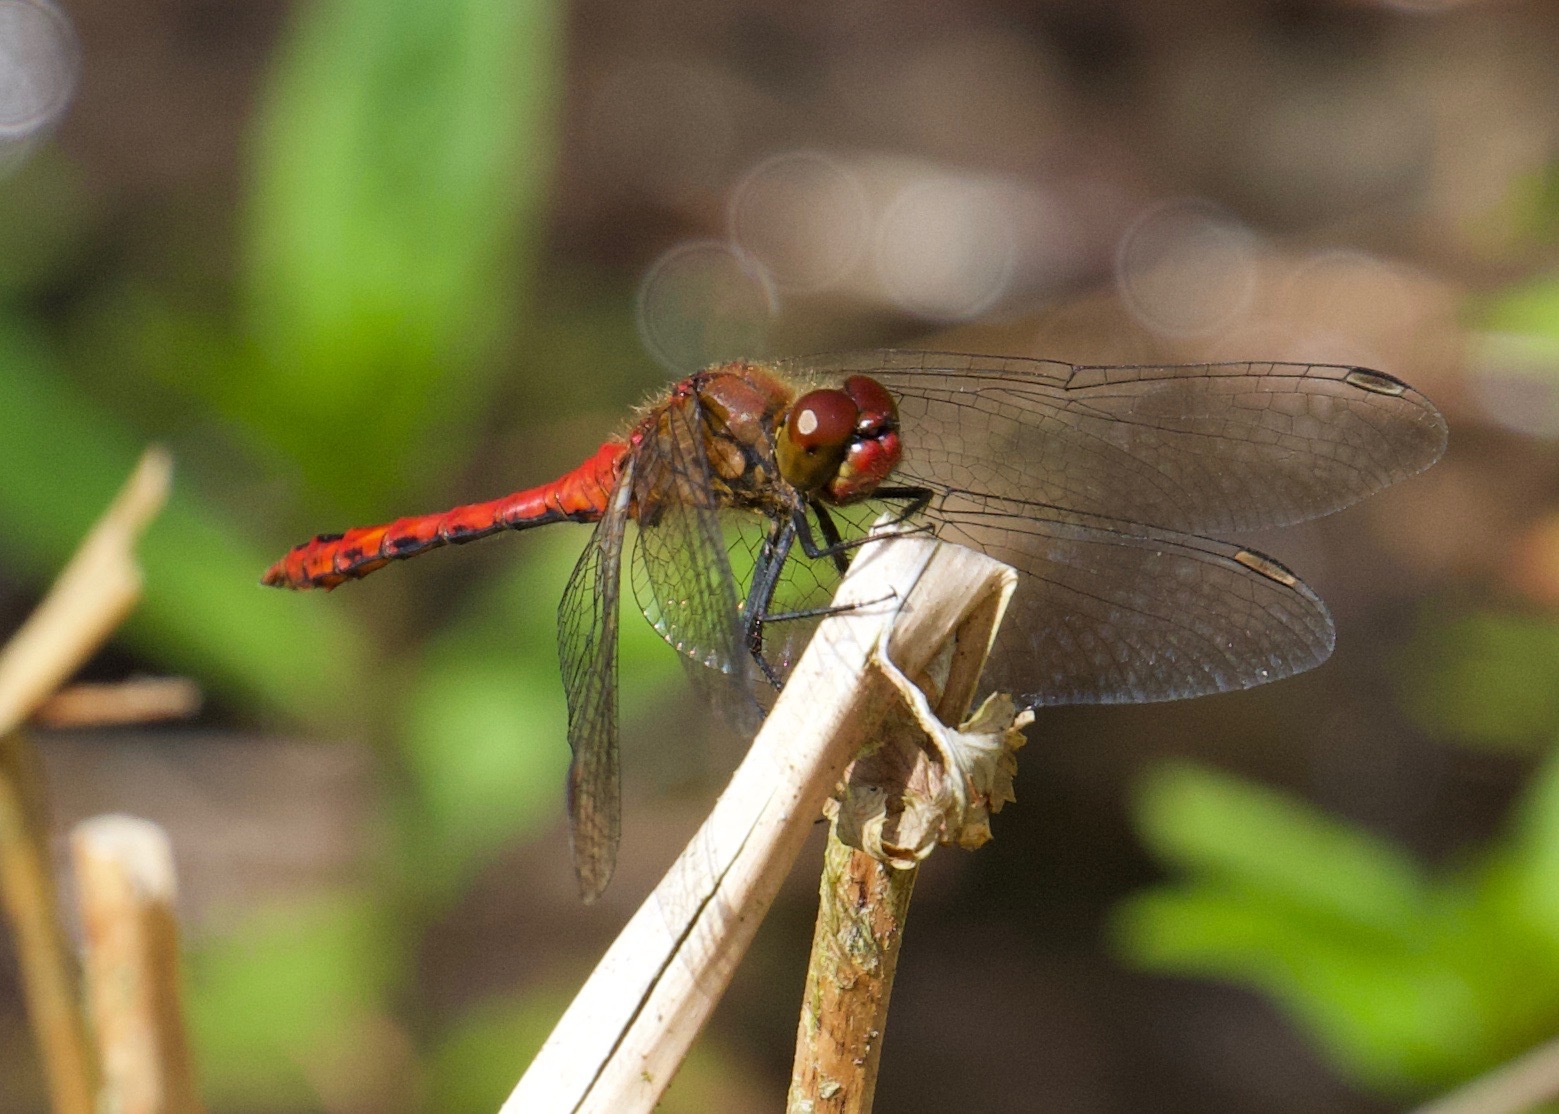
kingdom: Animalia
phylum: Arthropoda
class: Insecta
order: Odonata
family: Libellulidae
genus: Sympetrum
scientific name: Sympetrum sanguineum
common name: Ruddy darter
